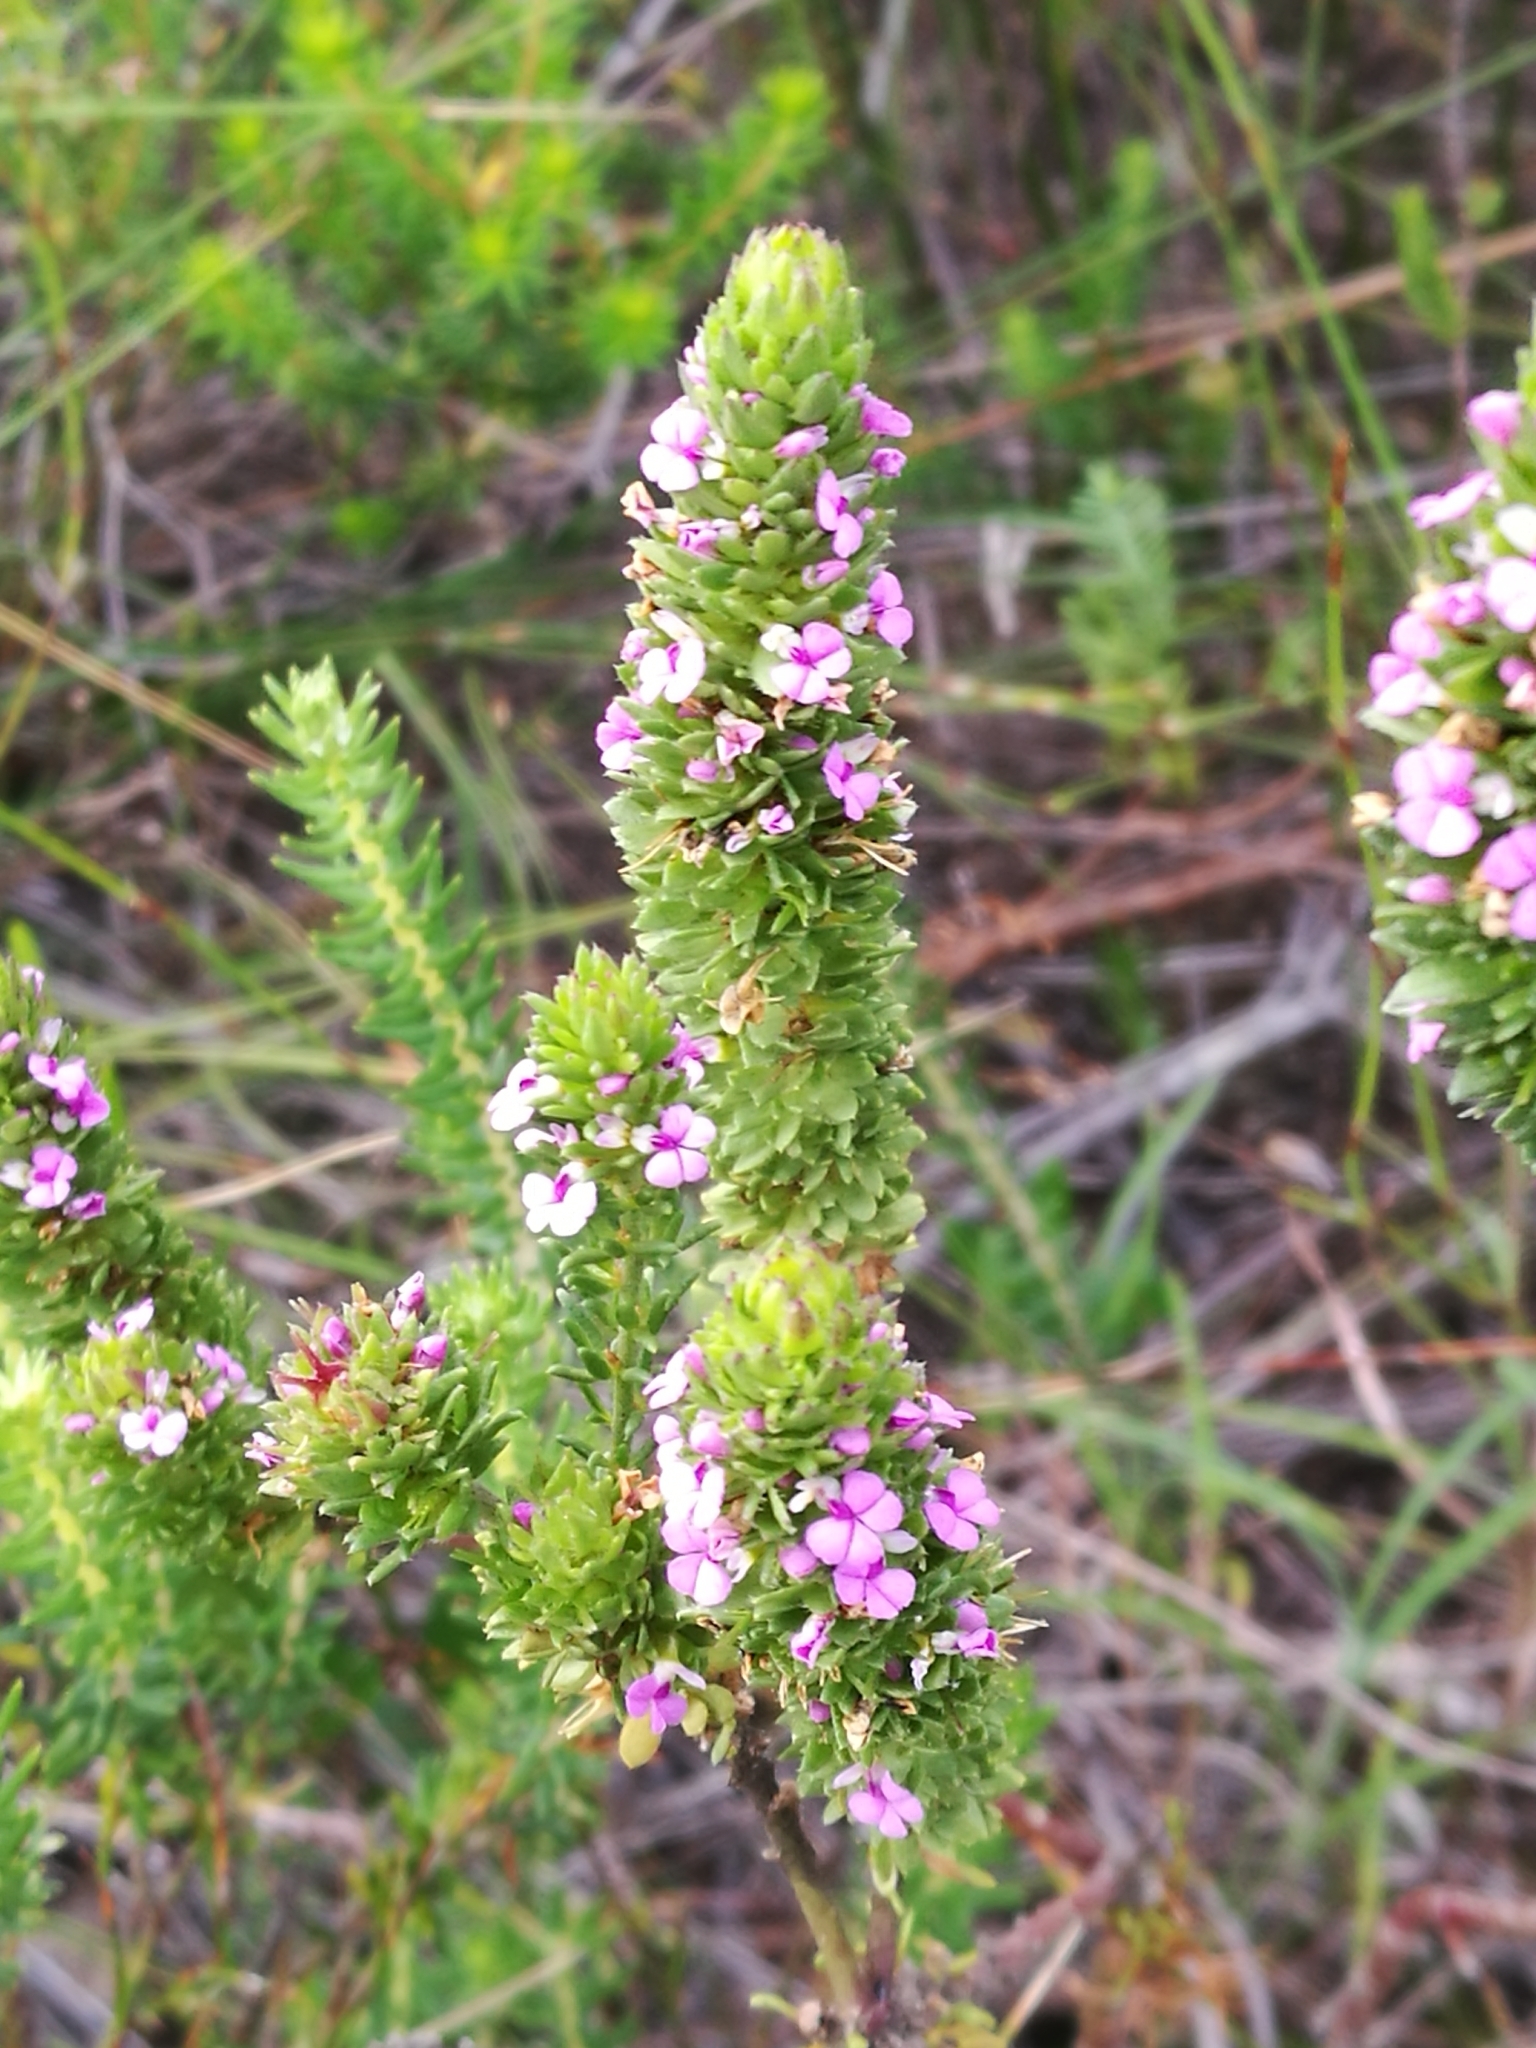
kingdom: Plantae
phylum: Tracheophyta
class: Magnoliopsida
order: Fabales
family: Polygalaceae
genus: Muraltia
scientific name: Muraltia alopecuroides
